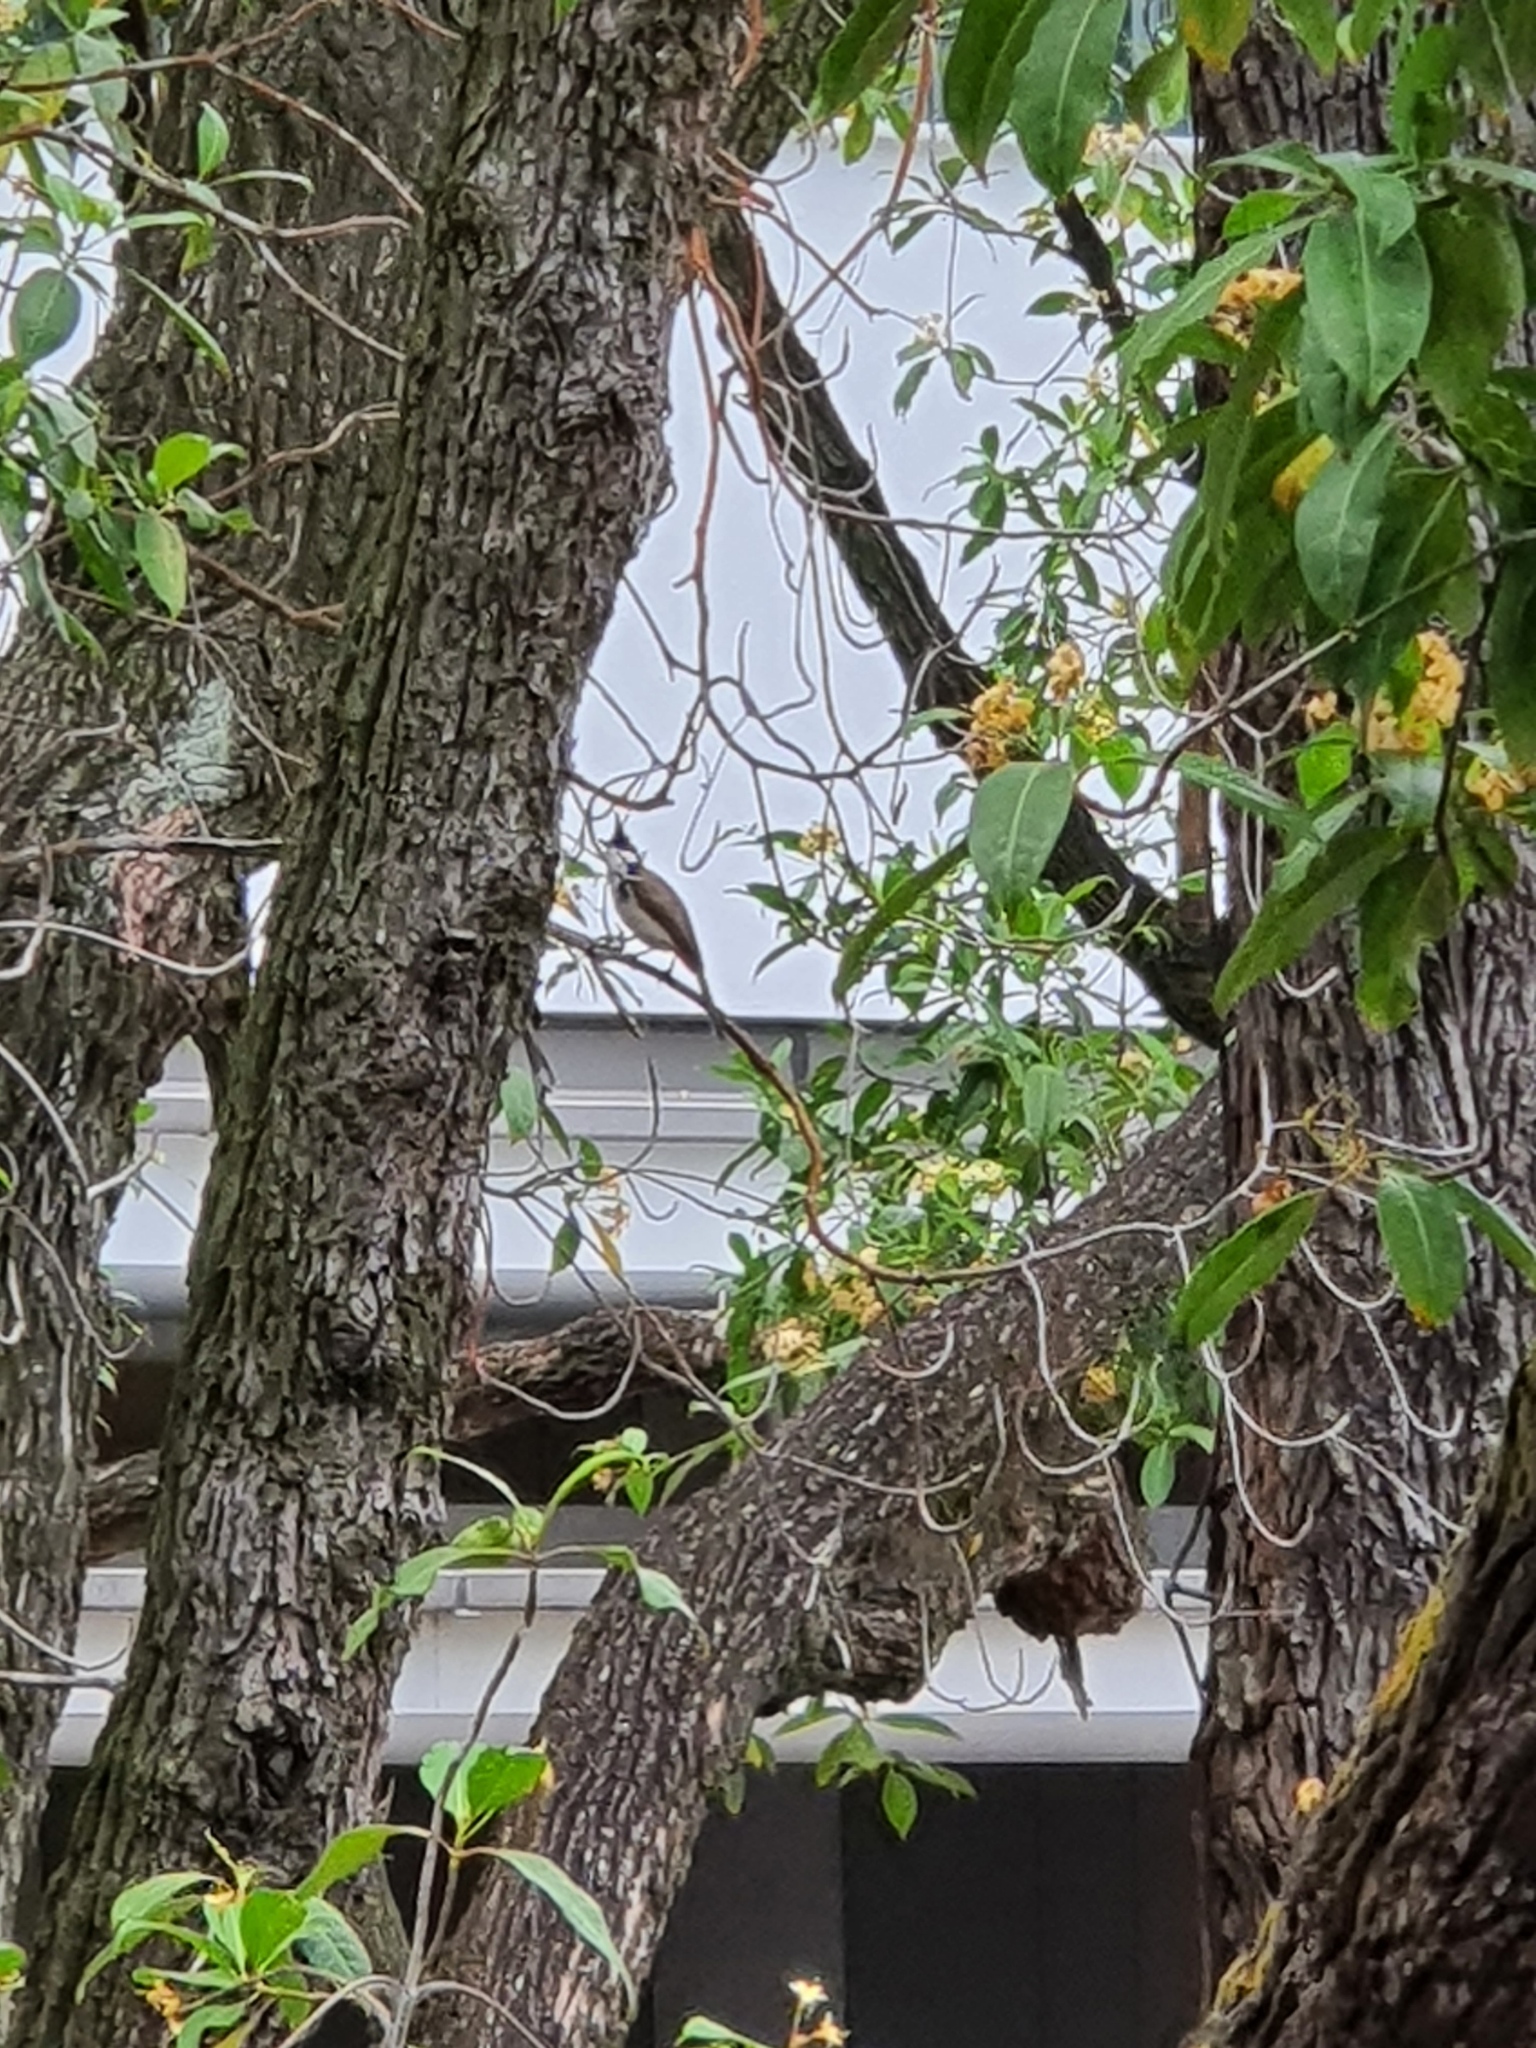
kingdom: Animalia
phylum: Chordata
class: Aves
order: Passeriformes
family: Pycnonotidae
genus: Pycnonotus
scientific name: Pycnonotus jocosus
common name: Red-whiskered bulbul
